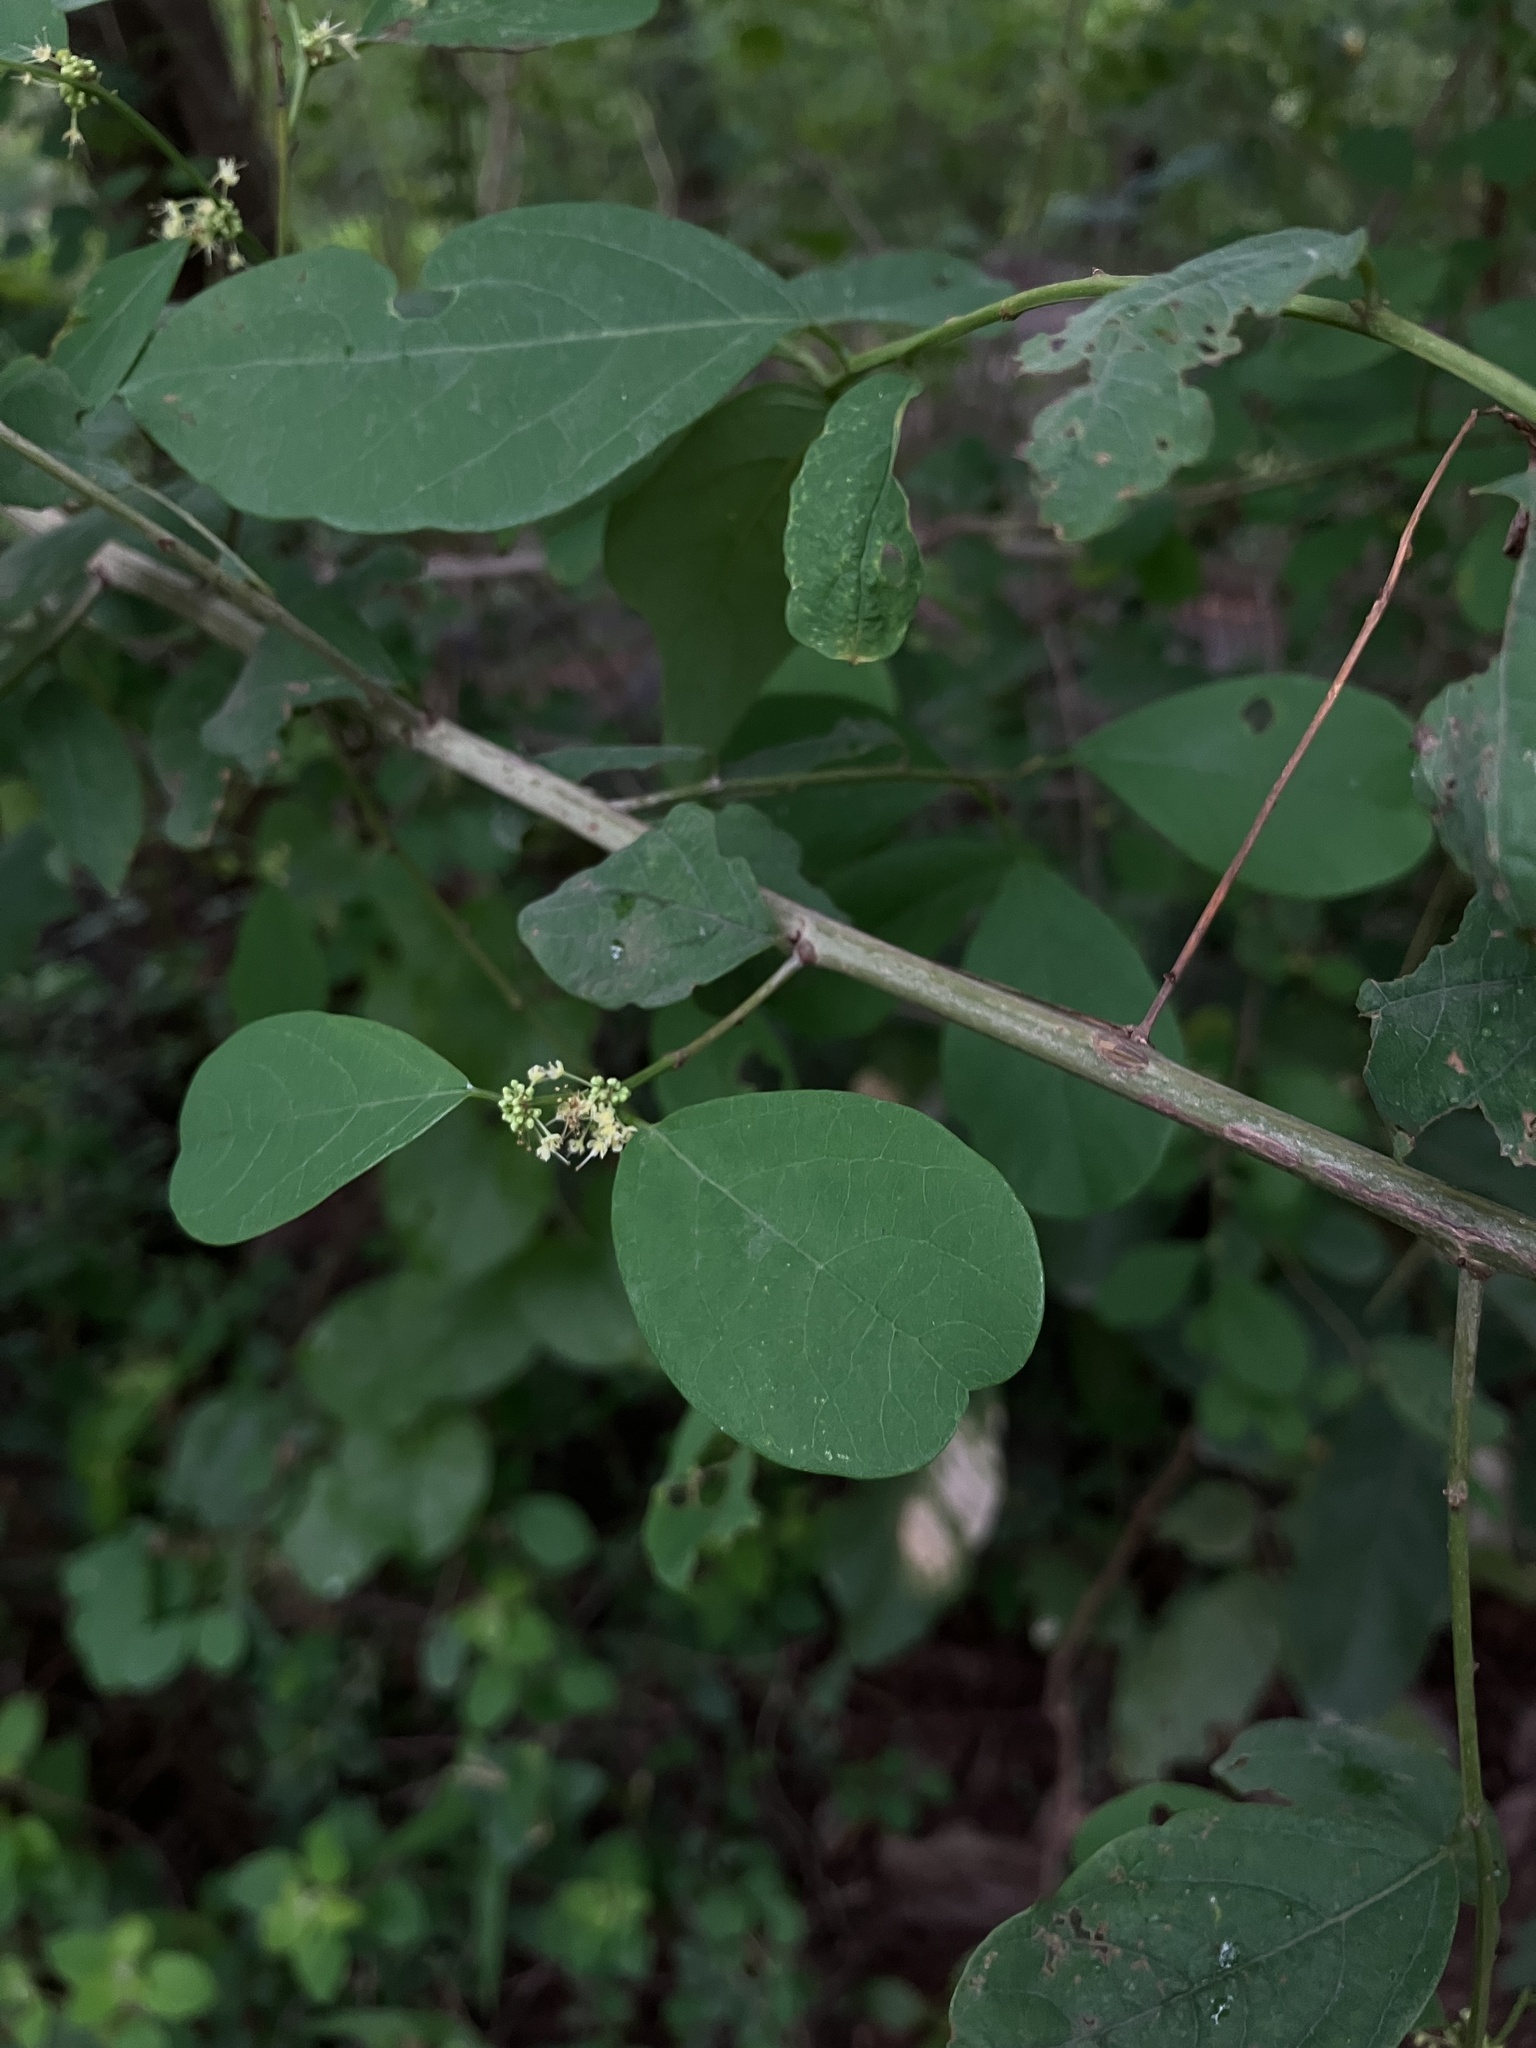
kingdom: Plantae
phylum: Tracheophyta
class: Magnoliopsida
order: Malpighiales
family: Phyllanthaceae
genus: Flueggea
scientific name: Flueggea leucopyrus
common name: Bushweed
